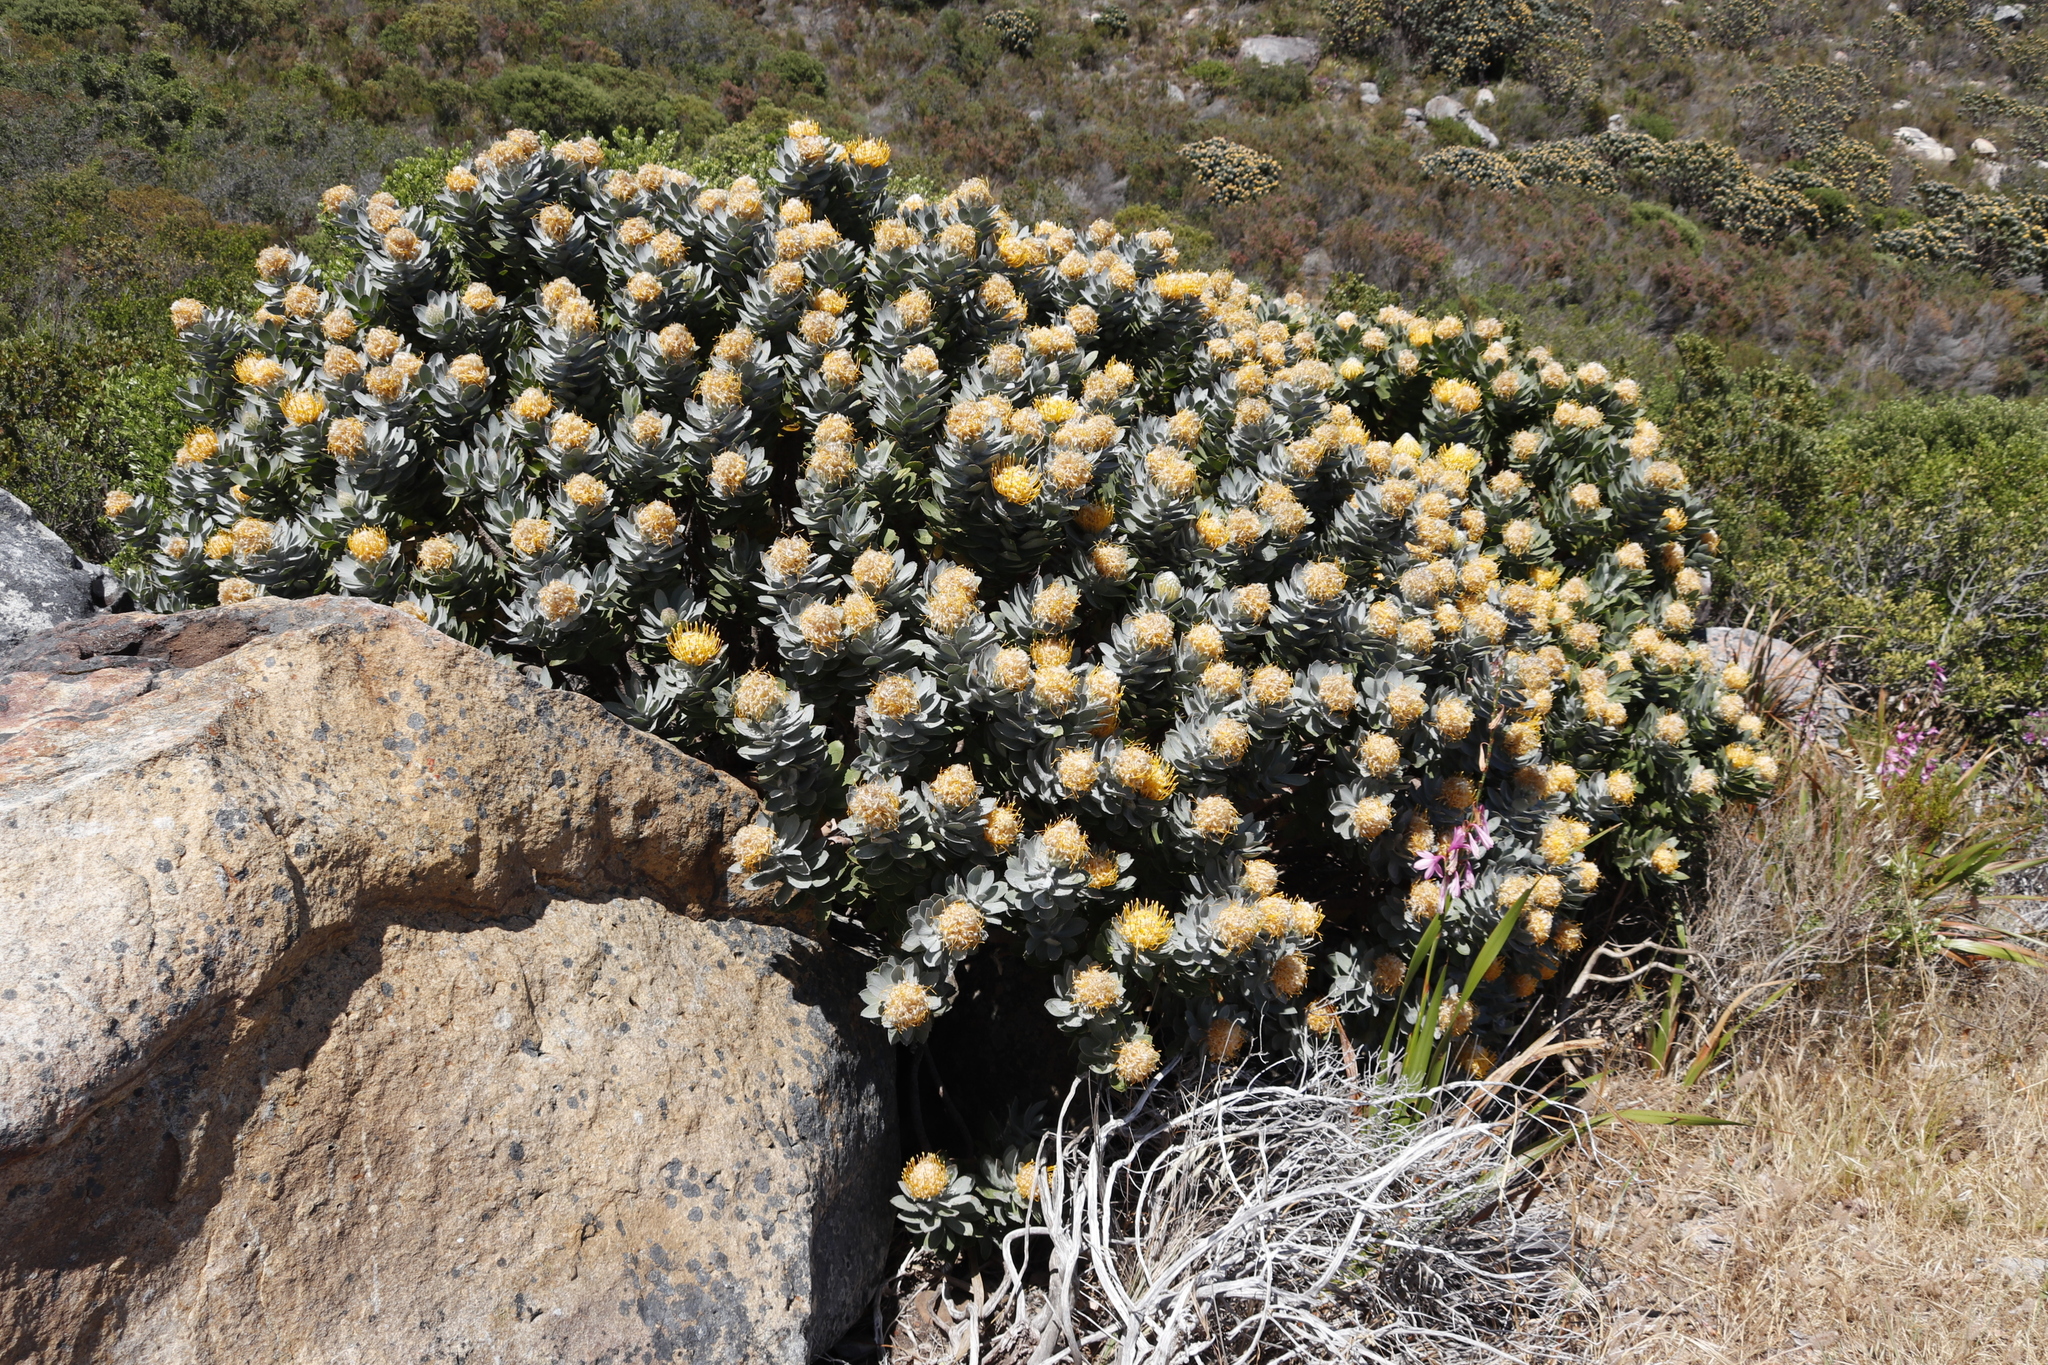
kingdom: Plantae
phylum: Tracheophyta
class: Magnoliopsida
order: Proteales
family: Proteaceae
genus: Leucospermum
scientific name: Leucospermum conocarpodendron
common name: Tree pincushion
